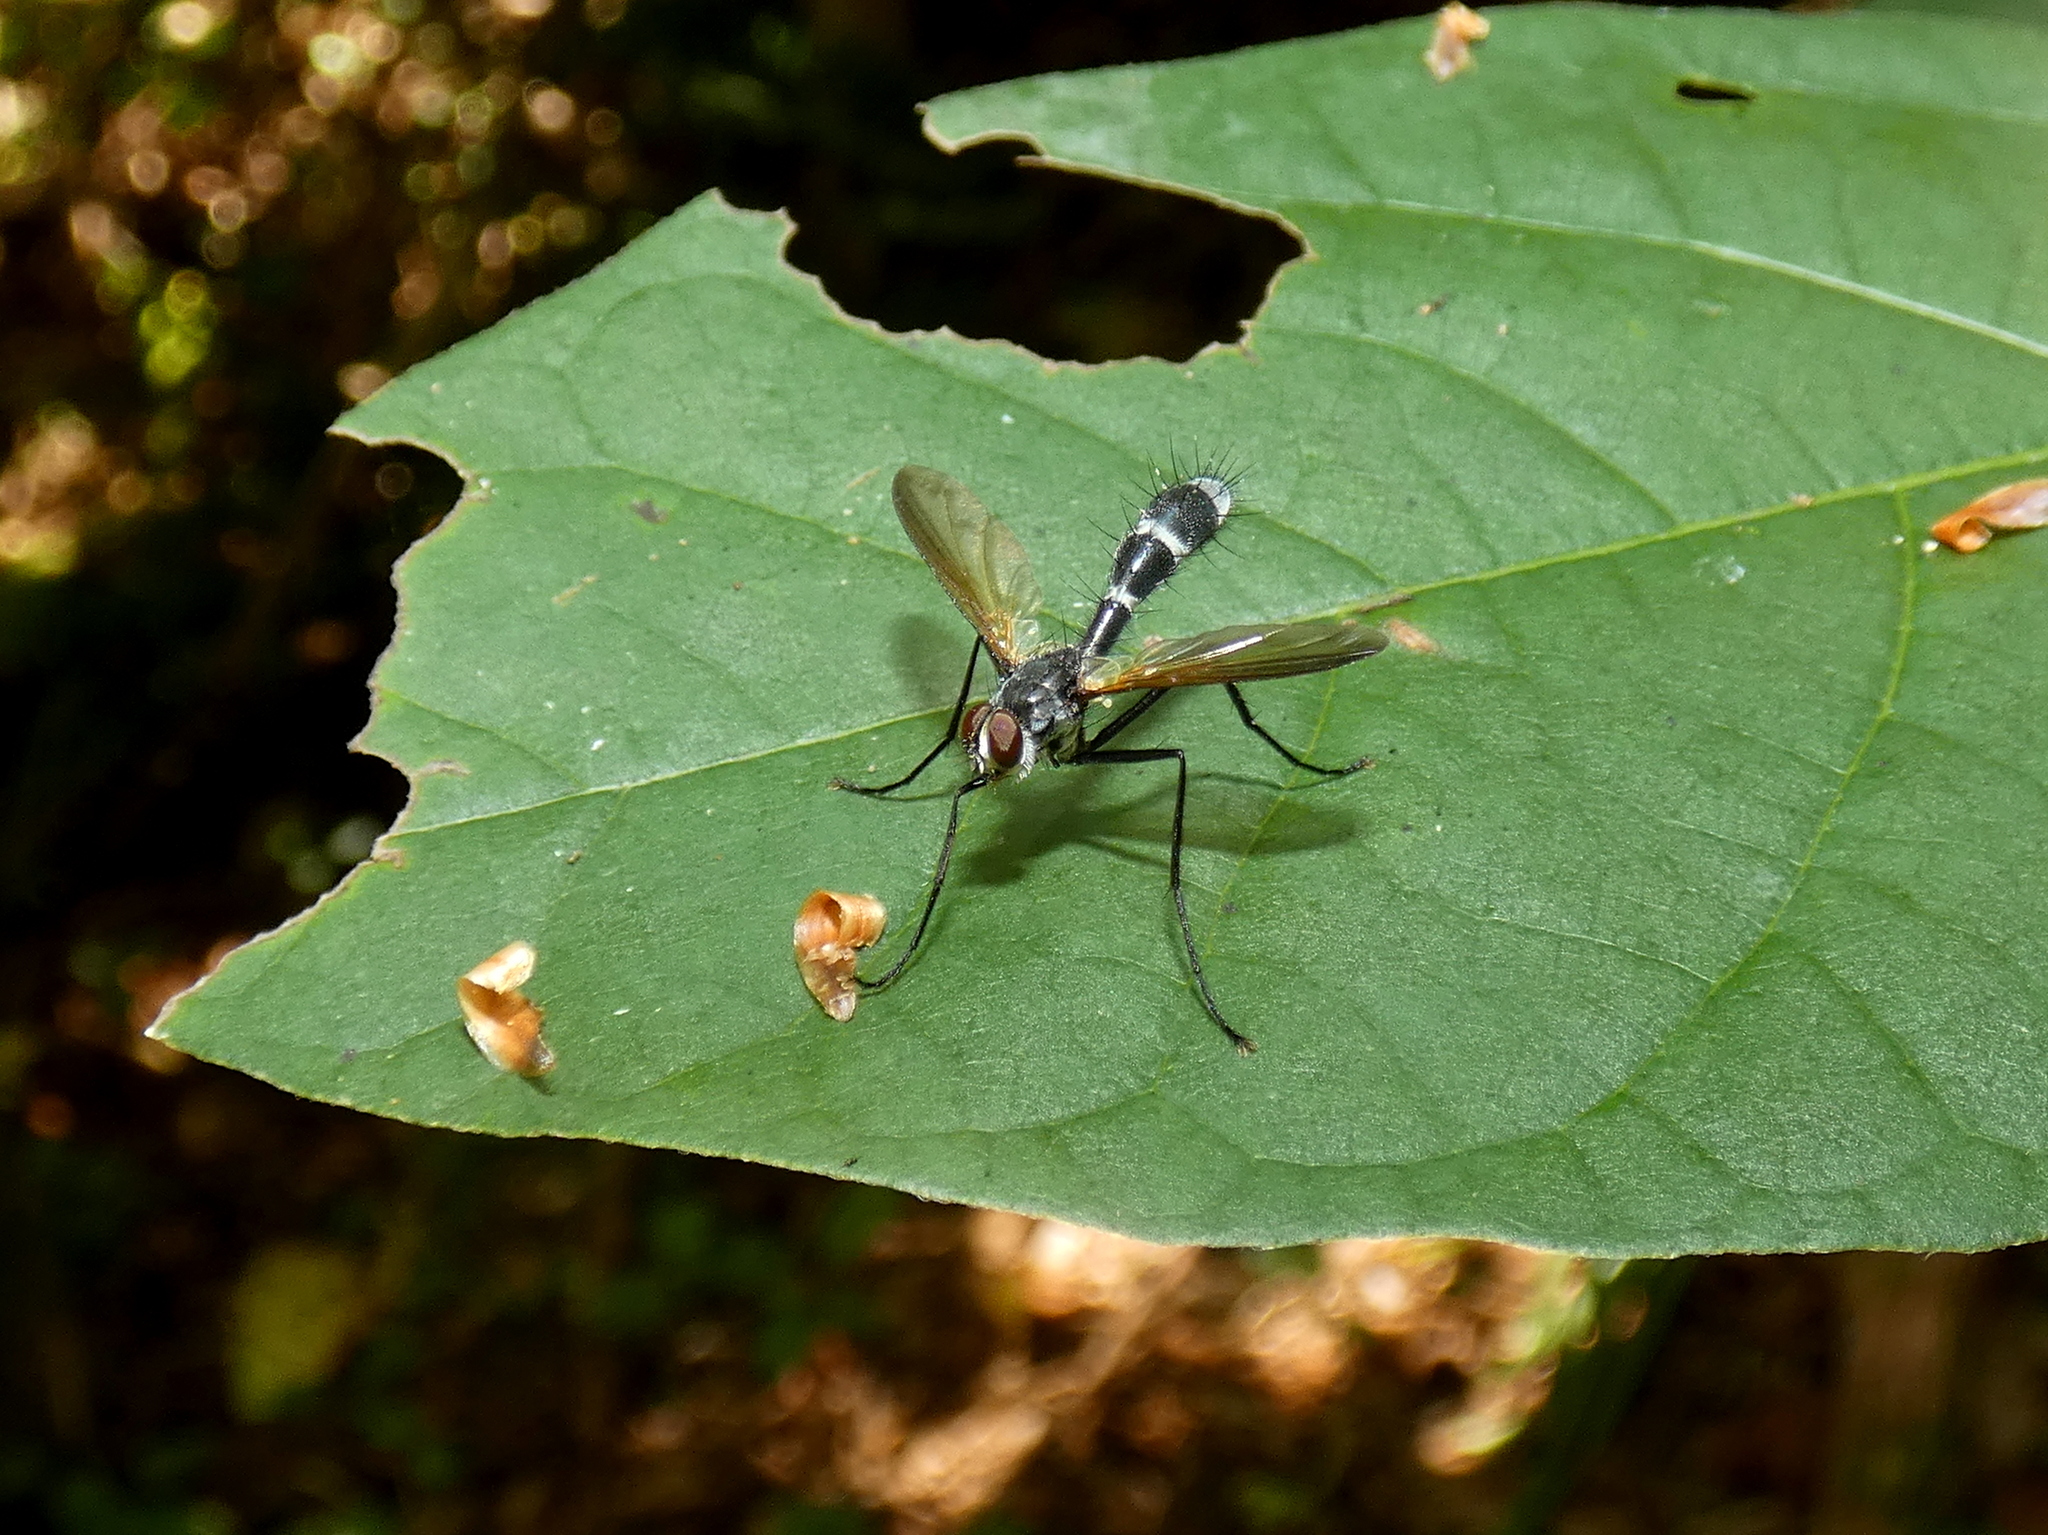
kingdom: Animalia
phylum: Arthropoda
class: Insecta
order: Diptera
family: Tachinidae
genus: Cordyligaster
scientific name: Cordyligaster septentrionalis
